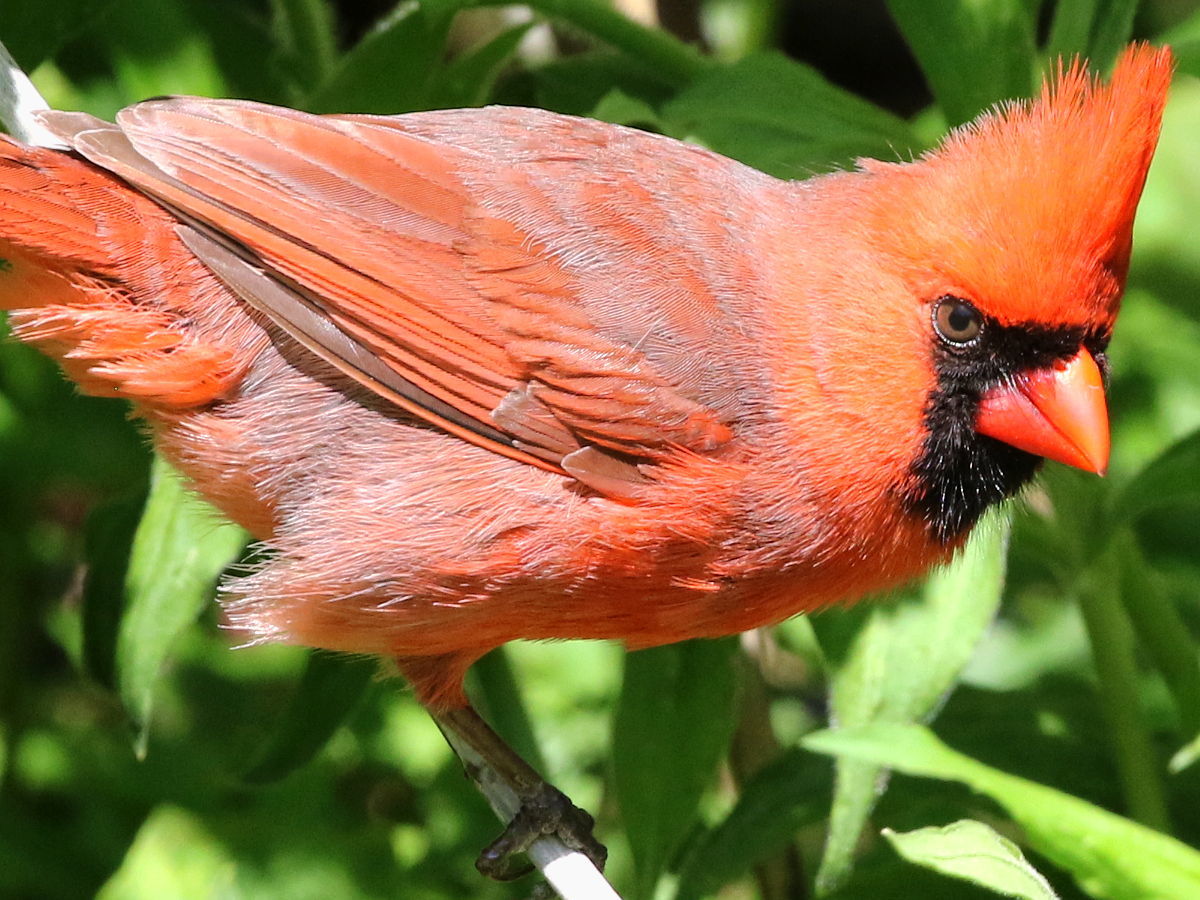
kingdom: Animalia
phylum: Chordata
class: Aves
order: Passeriformes
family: Cardinalidae
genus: Cardinalis
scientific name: Cardinalis cardinalis
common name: Northern cardinal
